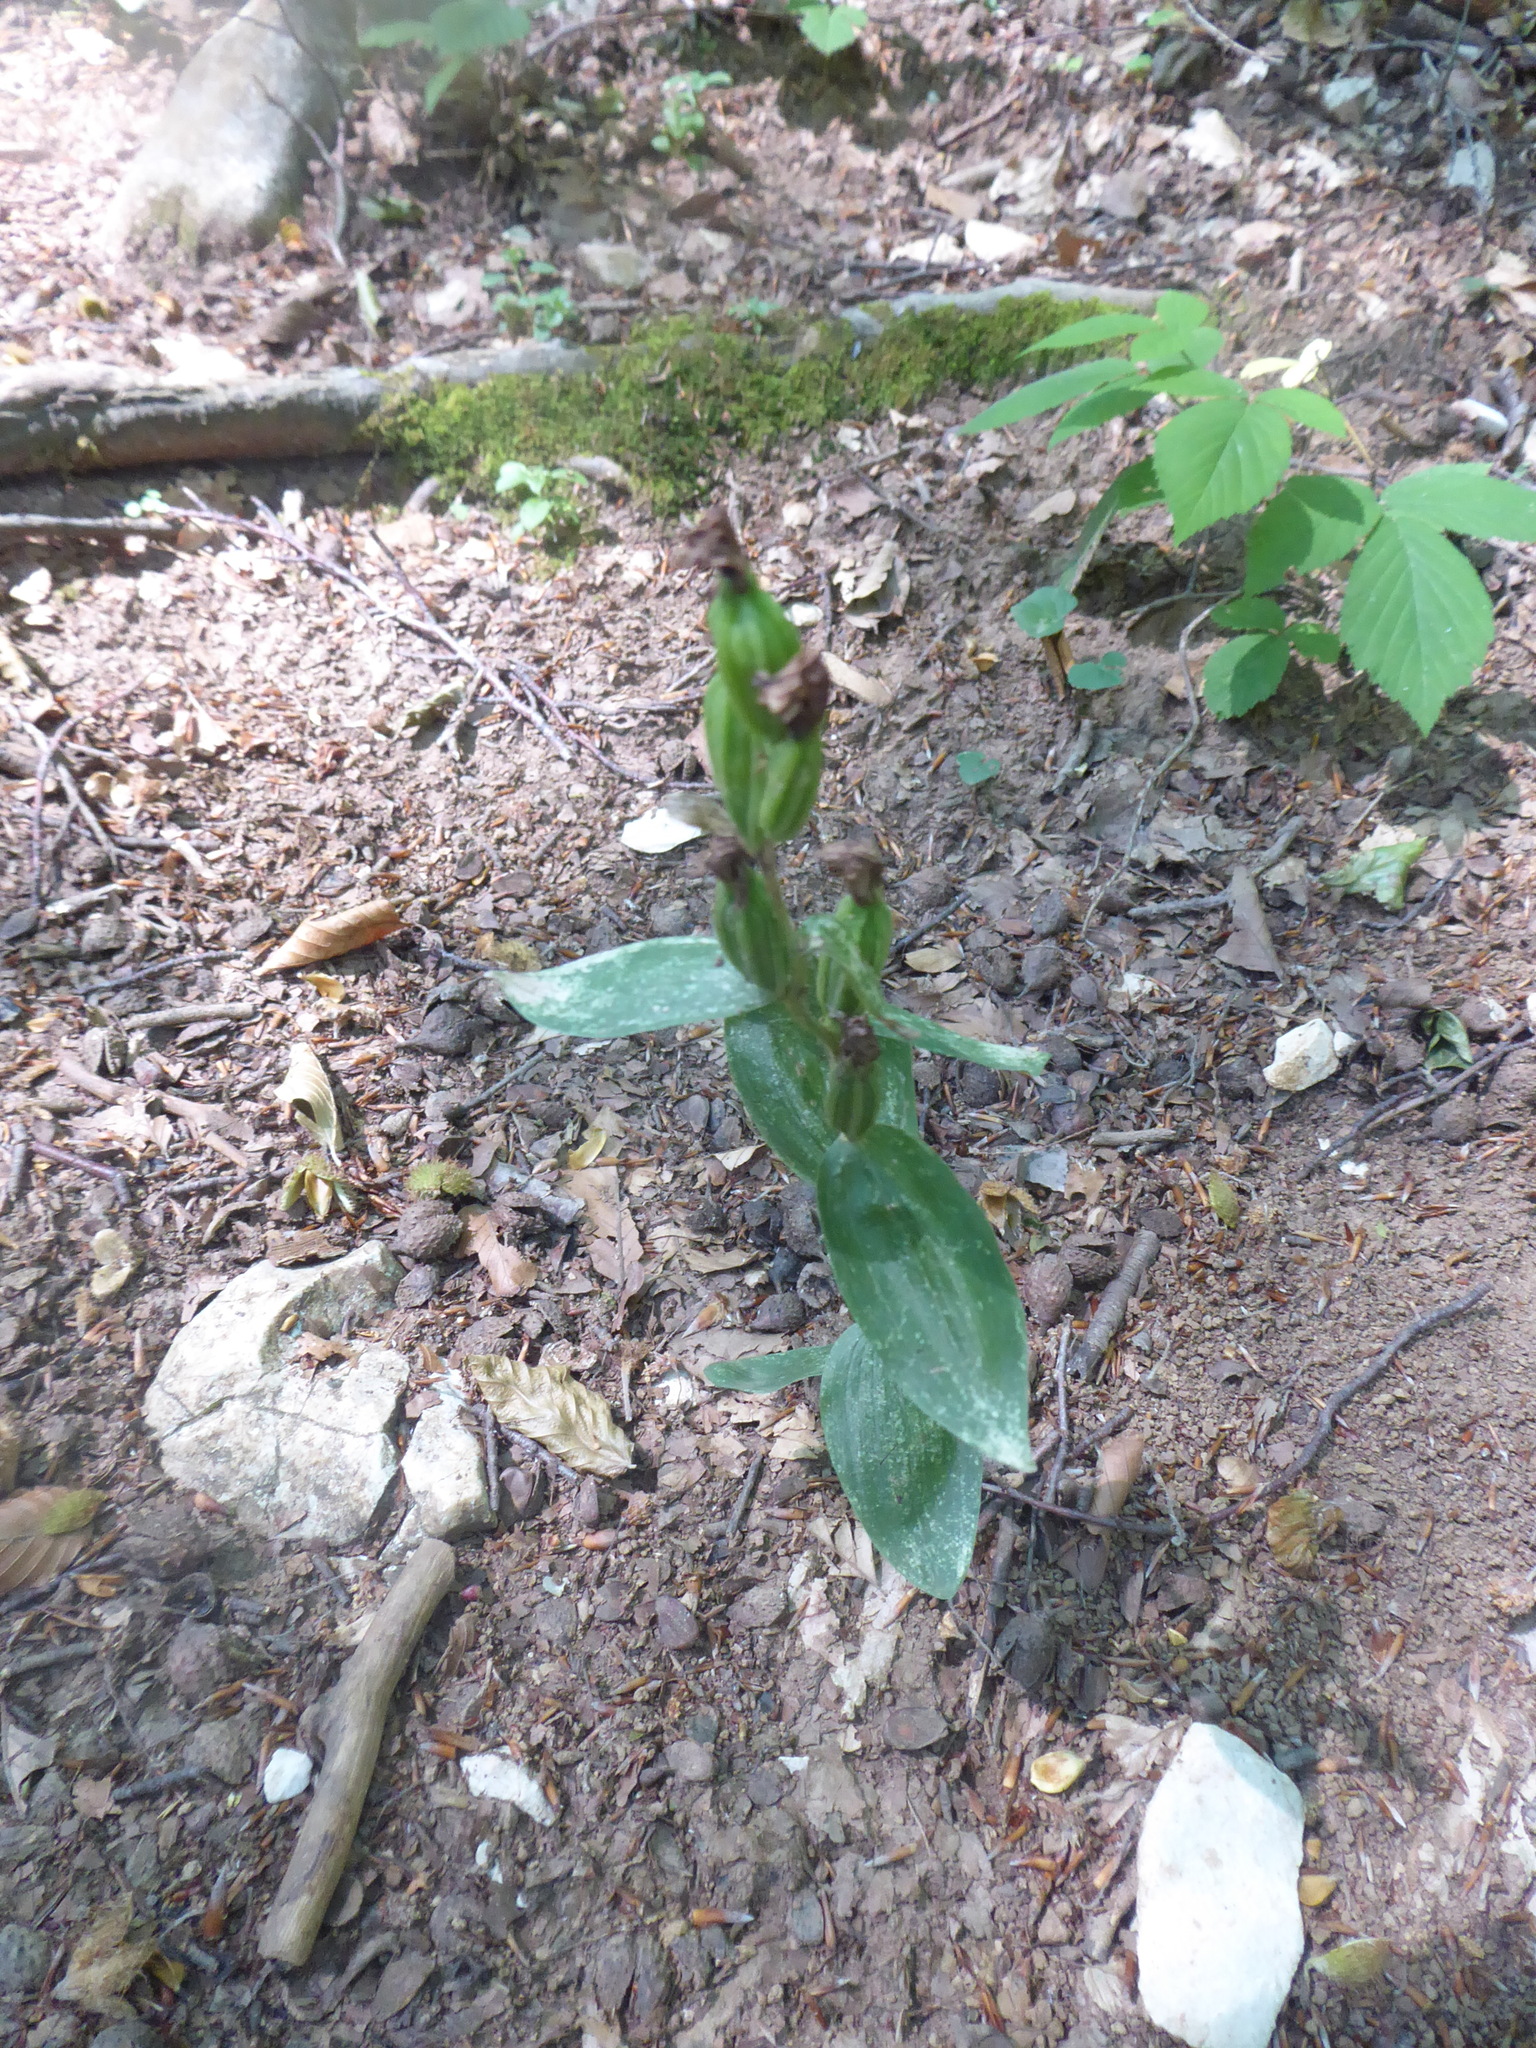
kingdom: Plantae
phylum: Tracheophyta
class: Liliopsida
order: Asparagales
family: Orchidaceae
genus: Cephalanthera
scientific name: Cephalanthera damasonium
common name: White helleborine
